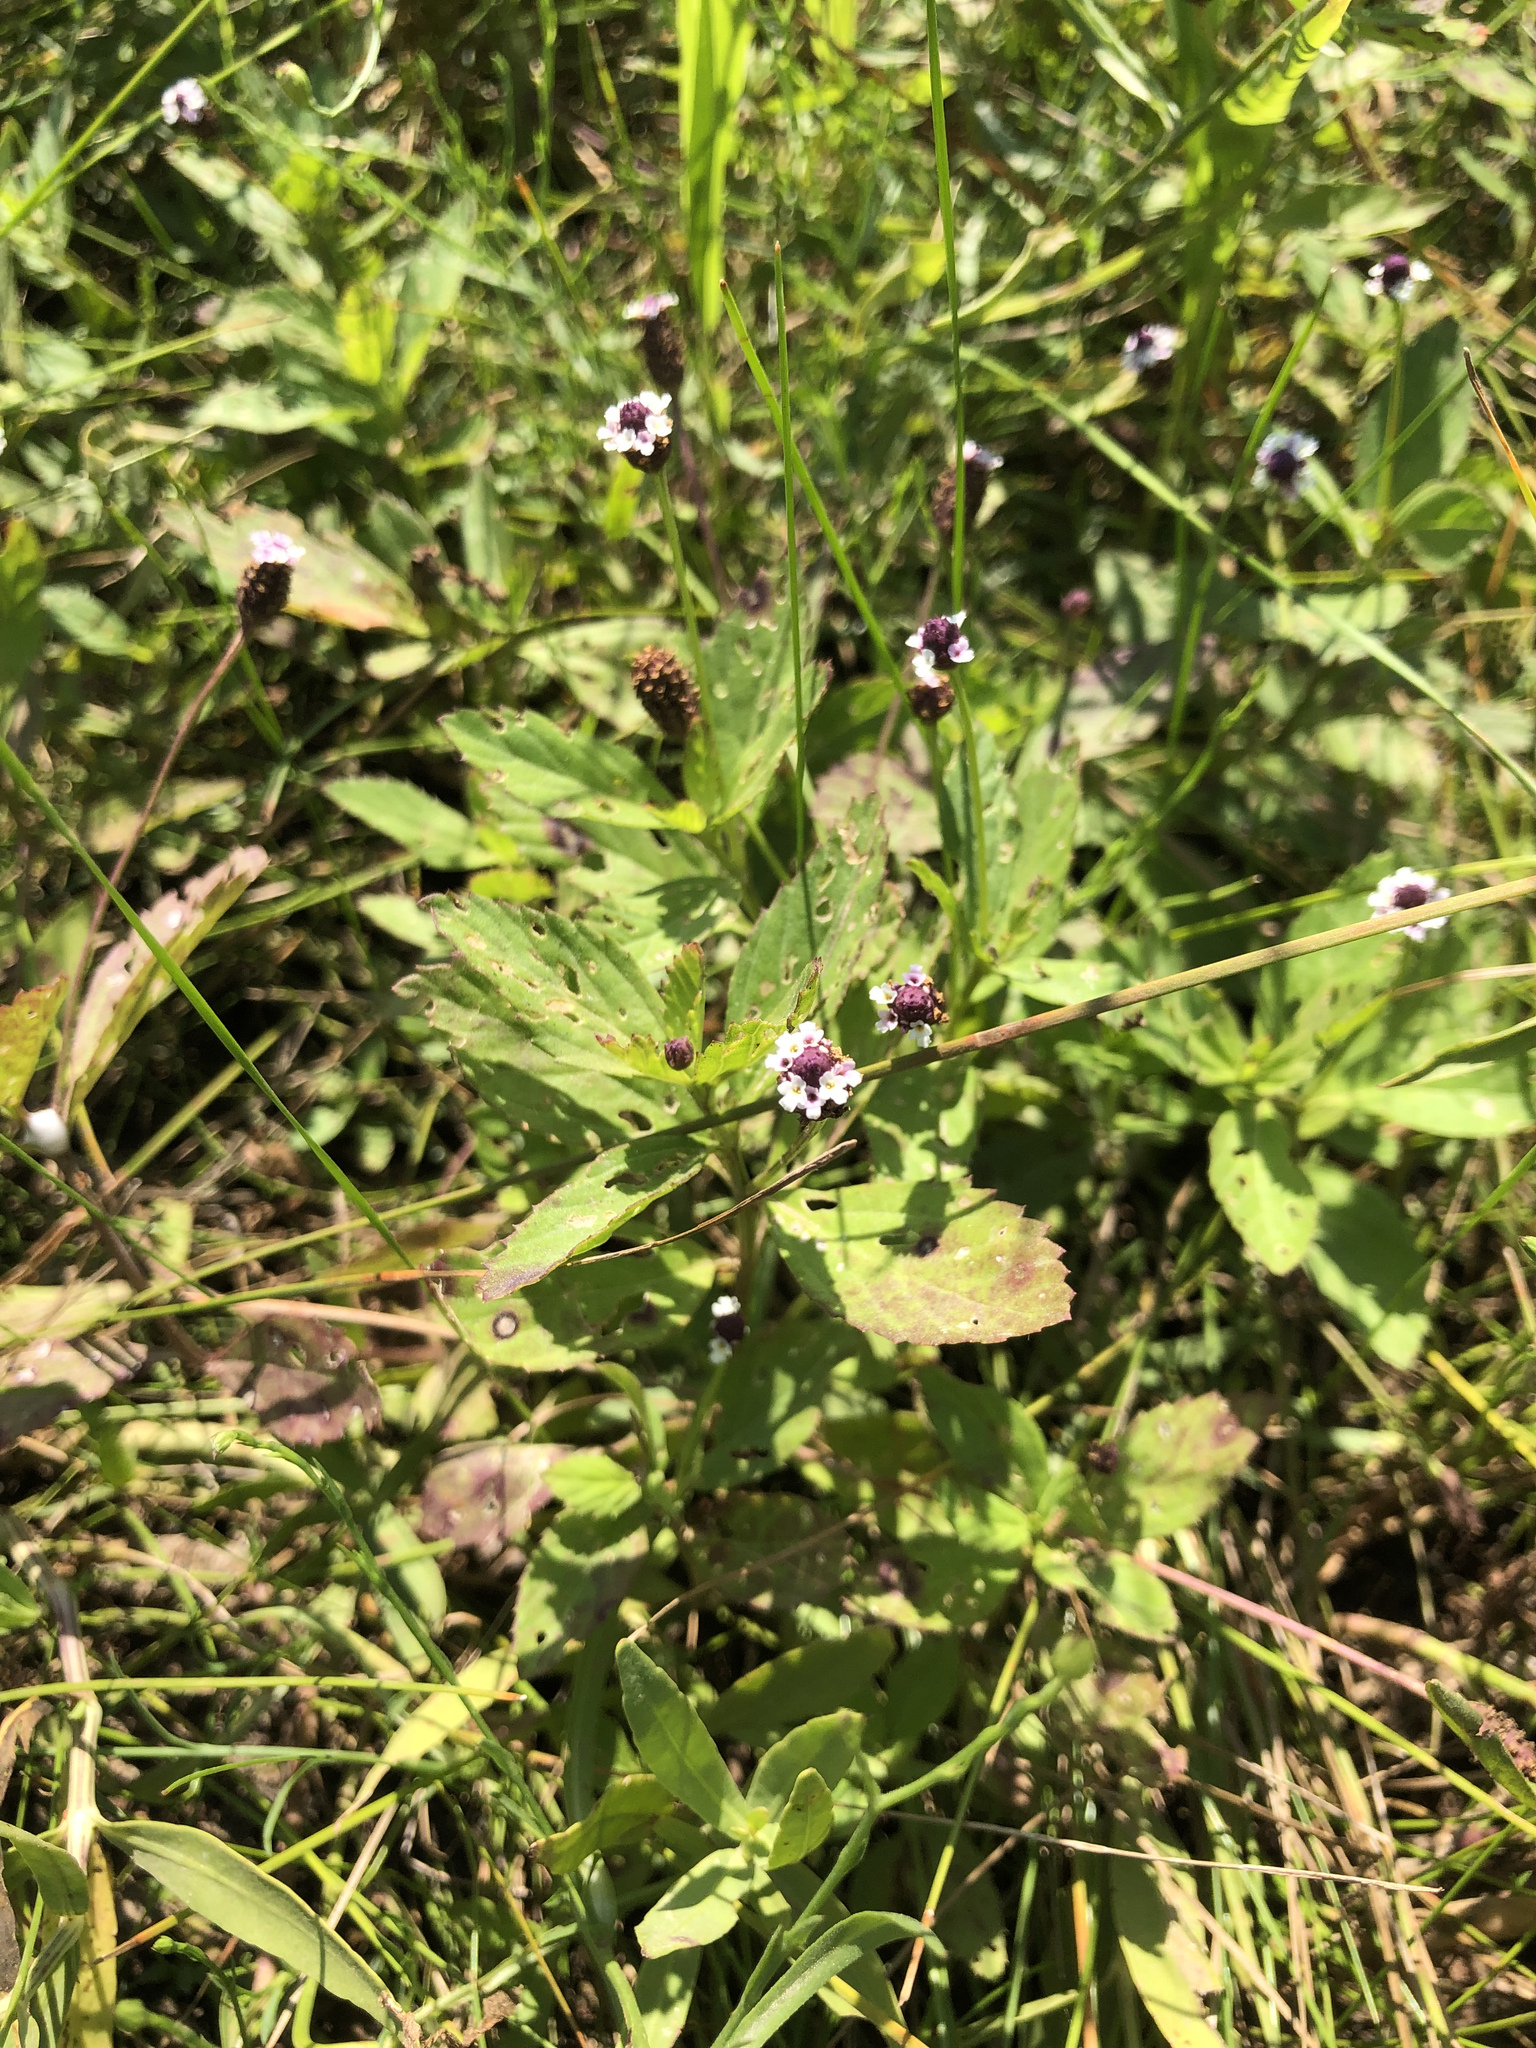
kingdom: Plantae
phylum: Tracheophyta
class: Magnoliopsida
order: Lamiales
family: Verbenaceae
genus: Phyla
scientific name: Phyla lanceolata
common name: Northern fogfruit
